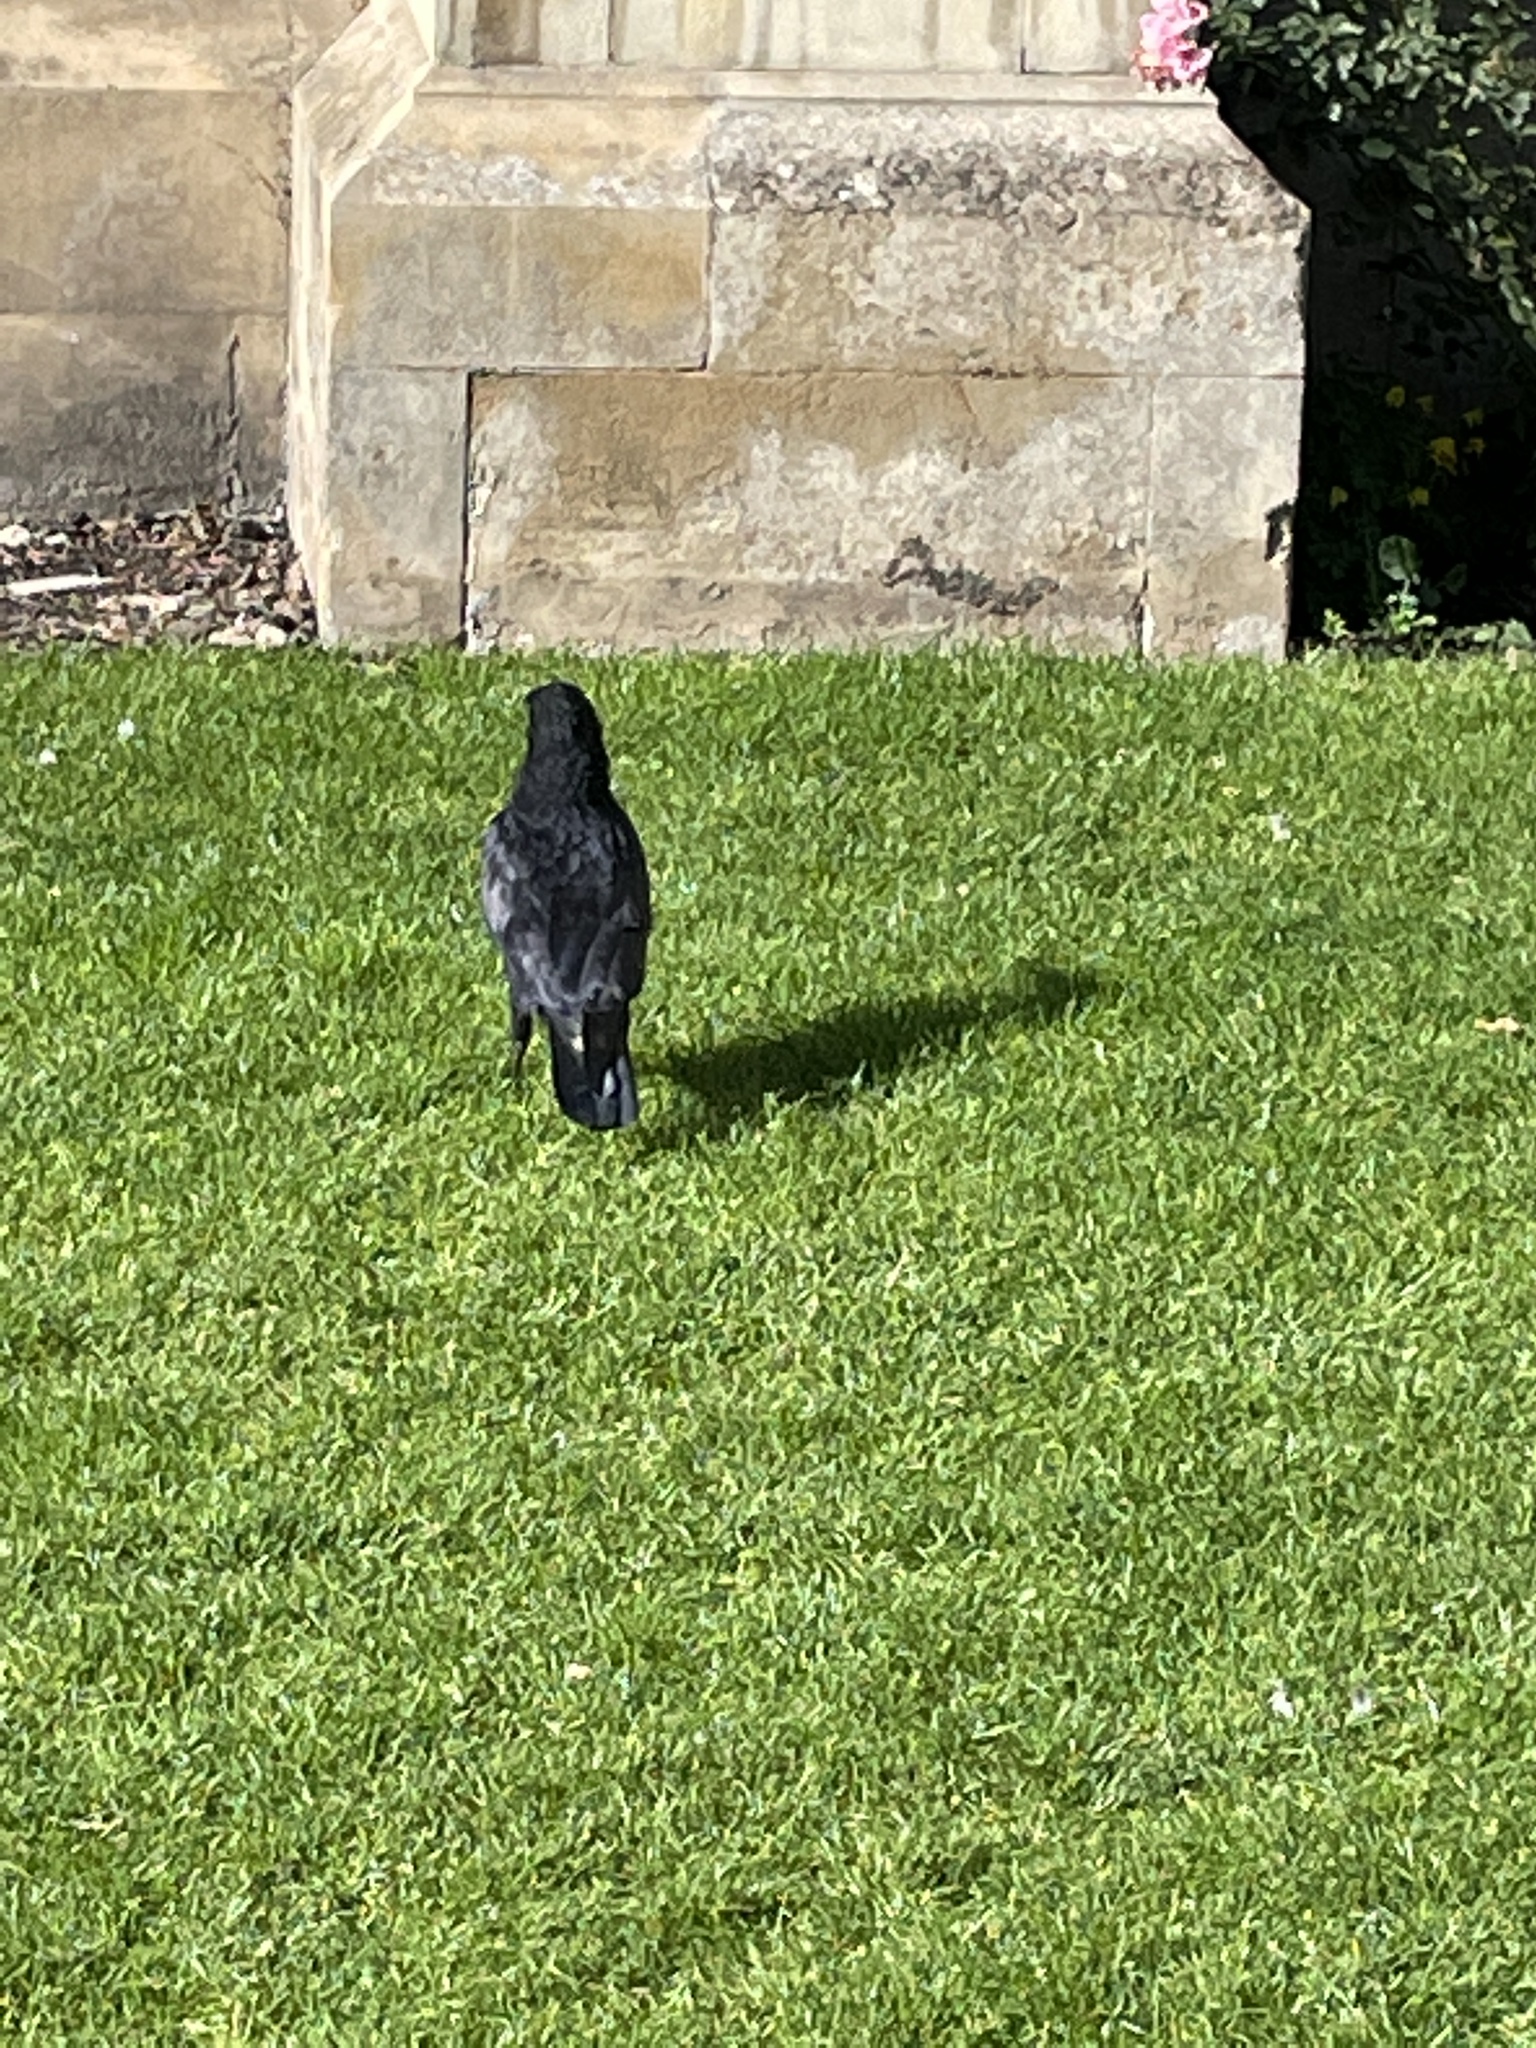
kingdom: Animalia
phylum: Chordata
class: Aves
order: Passeriformes
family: Corvidae
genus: Corvus
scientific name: Corvus corone
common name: Carrion crow
